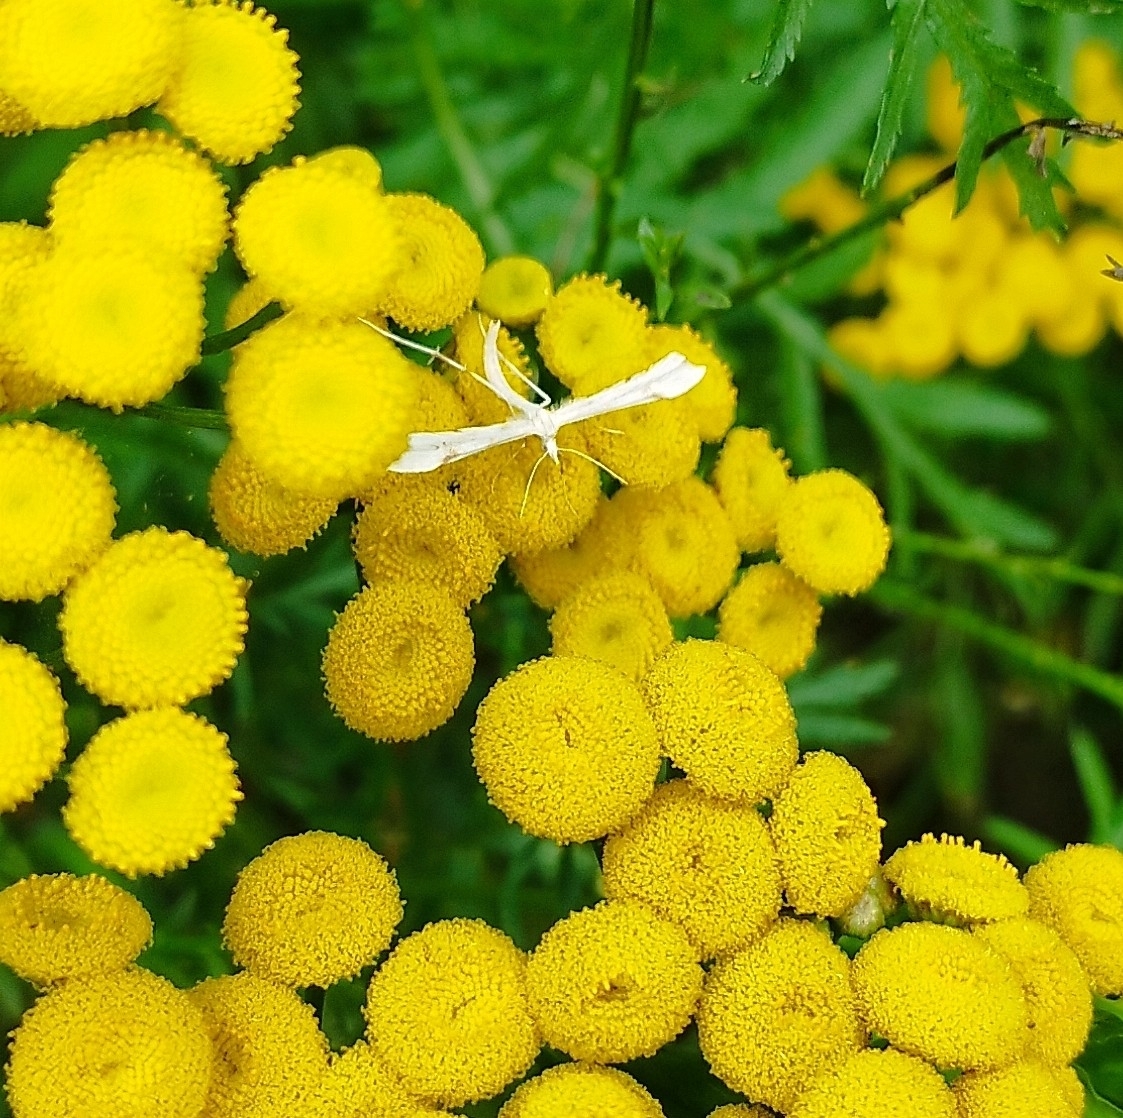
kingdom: Animalia
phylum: Arthropoda
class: Insecta
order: Lepidoptera
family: Pterophoridae
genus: Gillmeria
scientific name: Gillmeria ochrodactyla
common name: Tansy plume
